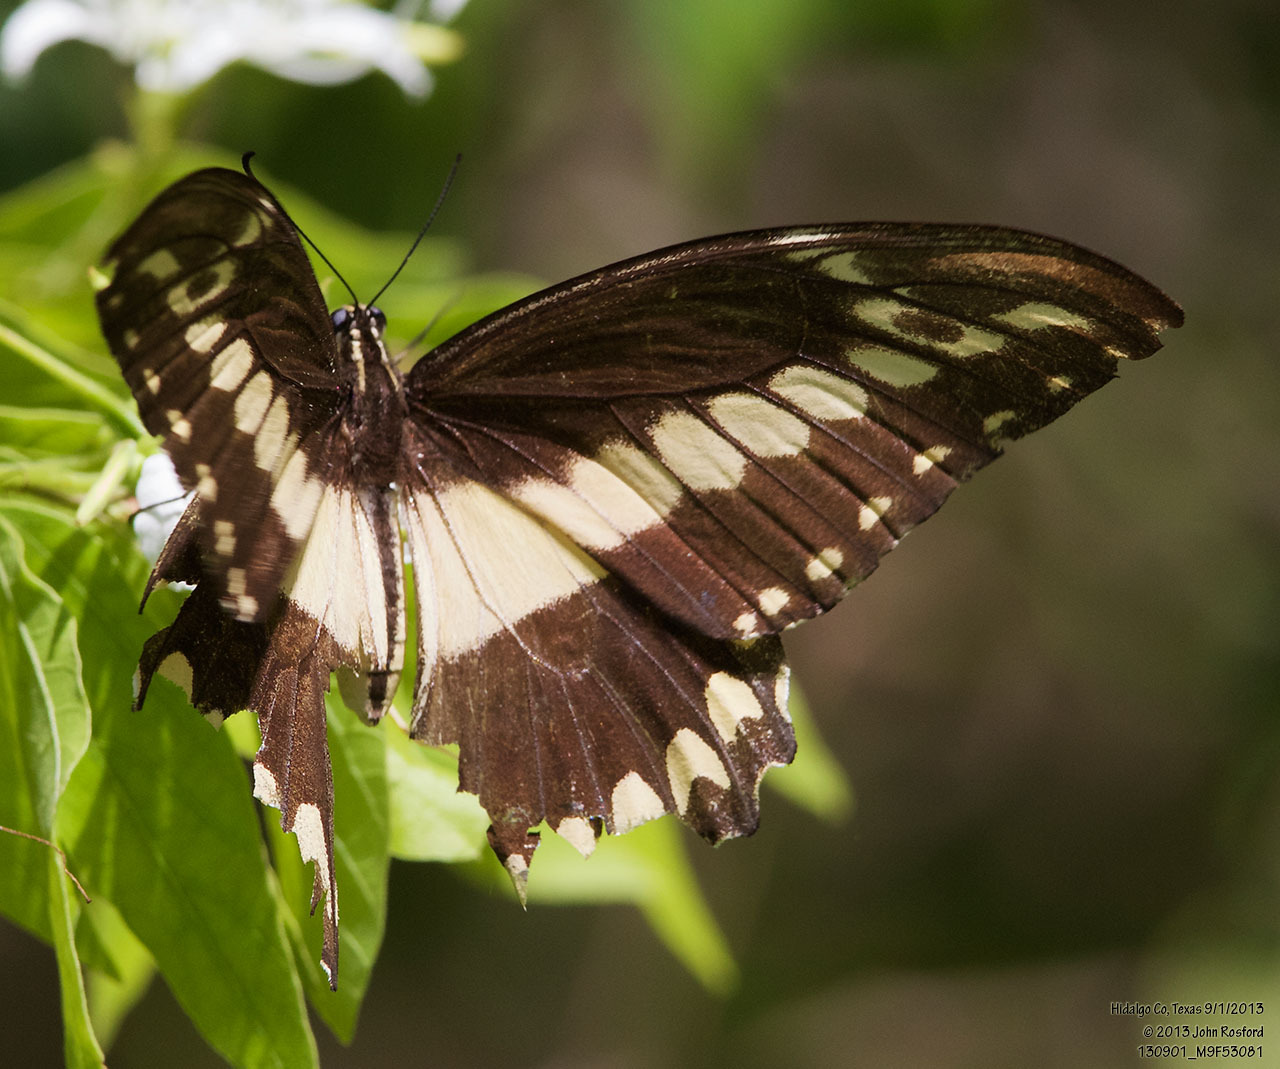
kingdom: Animalia
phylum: Arthropoda
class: Insecta
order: Lepidoptera
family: Papilionidae
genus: Papilio
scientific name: Papilio ornythion
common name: Ornythion swallowtail
